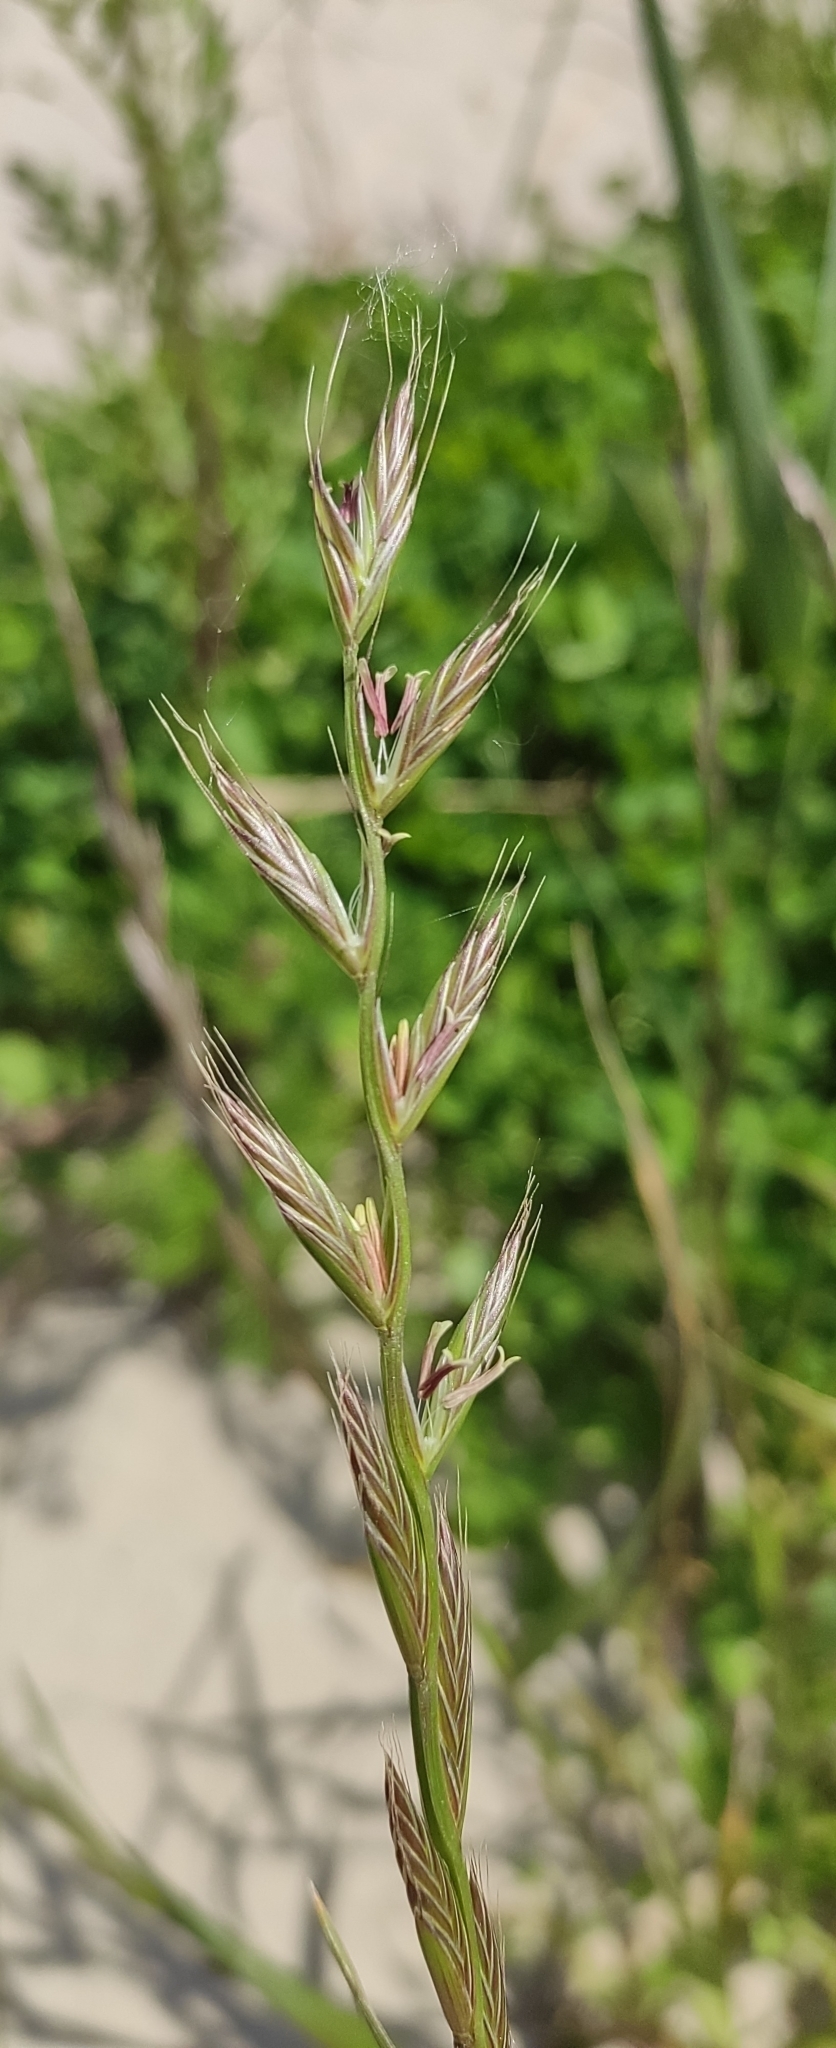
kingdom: Plantae
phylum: Tracheophyta
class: Liliopsida
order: Poales
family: Poaceae
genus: Lolium
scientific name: Lolium multiflorum
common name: Annual ryegrass
